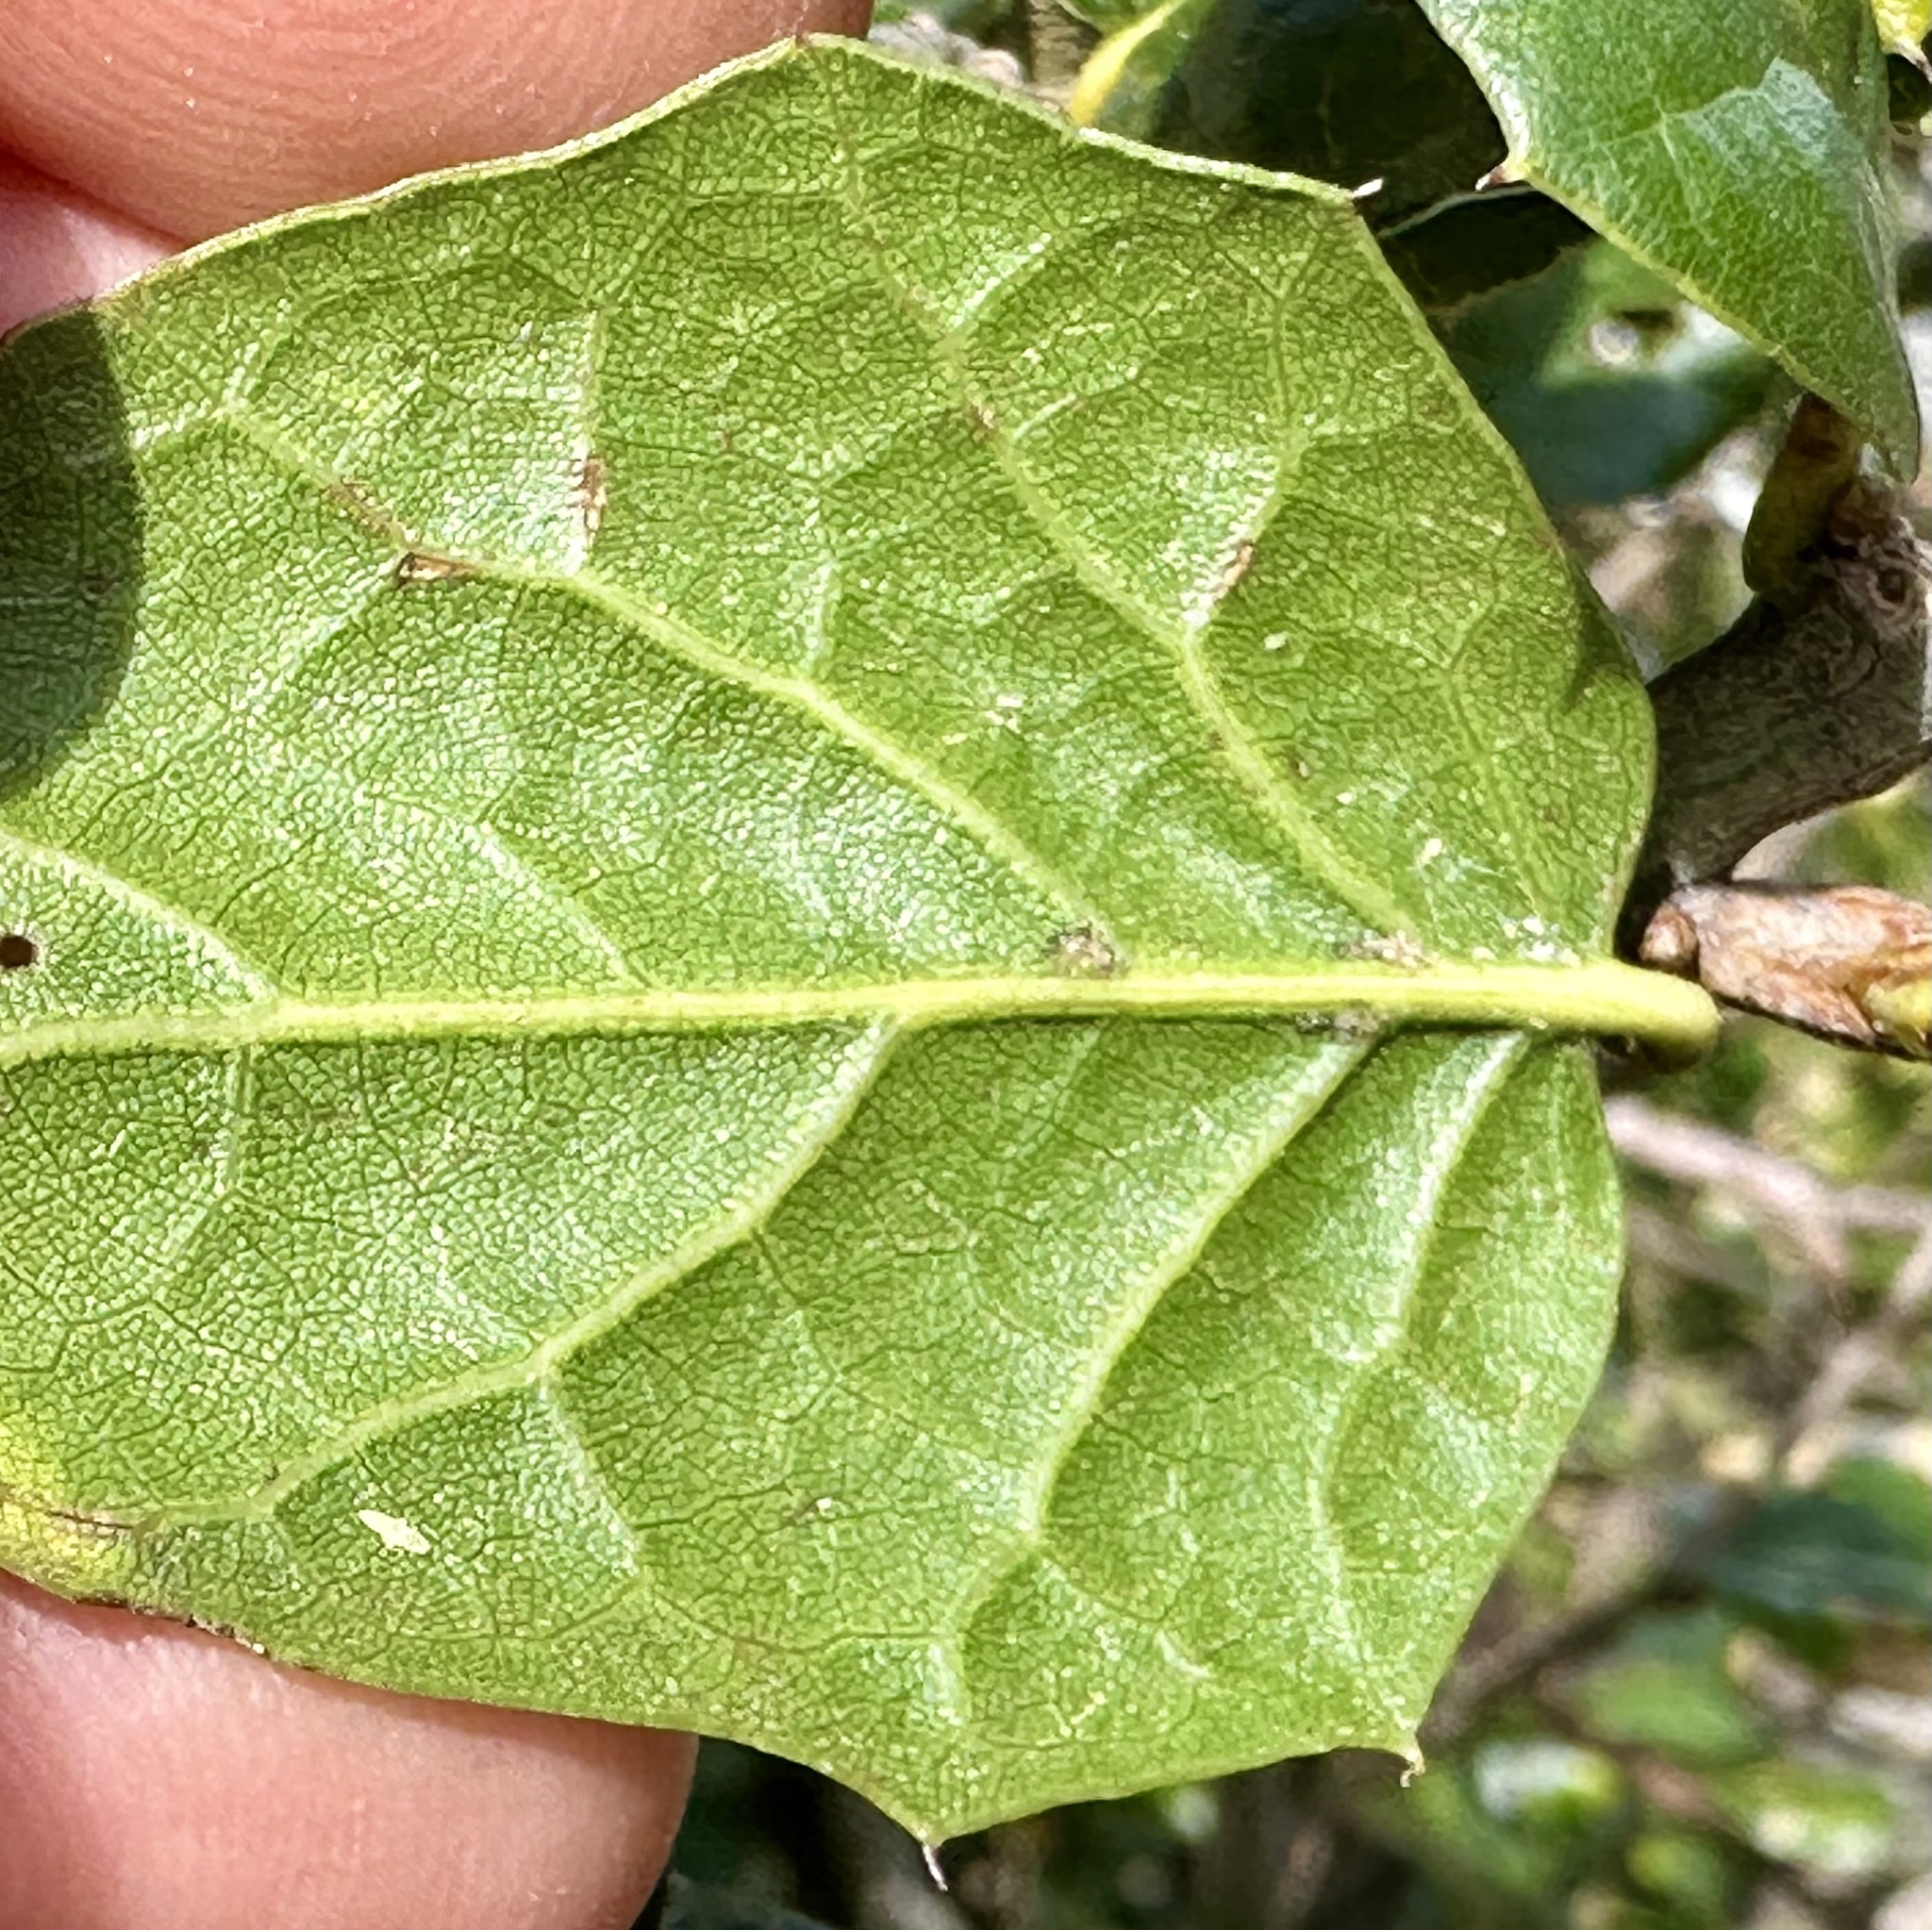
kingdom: Plantae
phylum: Tracheophyta
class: Magnoliopsida
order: Fagales
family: Fagaceae
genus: Quercus
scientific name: Quercus agrifolia
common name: California live oak
